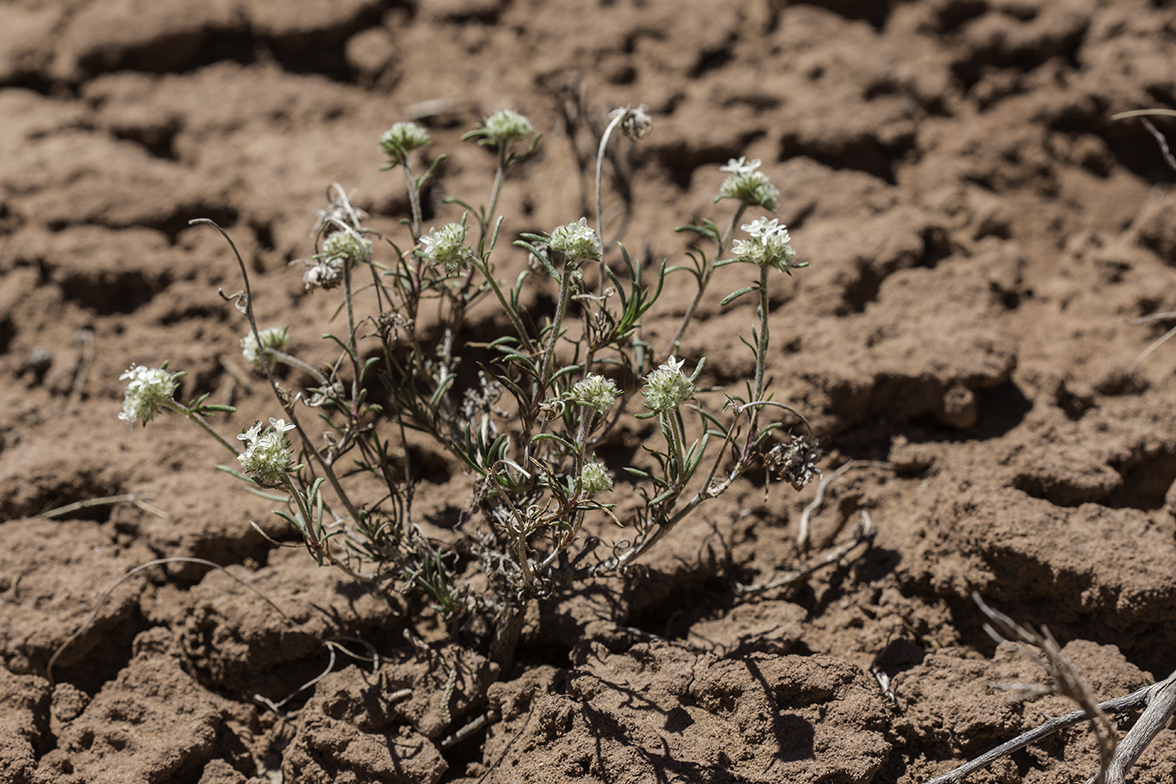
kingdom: Plantae
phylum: Tracheophyta
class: Magnoliopsida
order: Ericales
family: Polemoniaceae
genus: Ipomopsis
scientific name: Ipomopsis congesta
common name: Ball-head gilia
